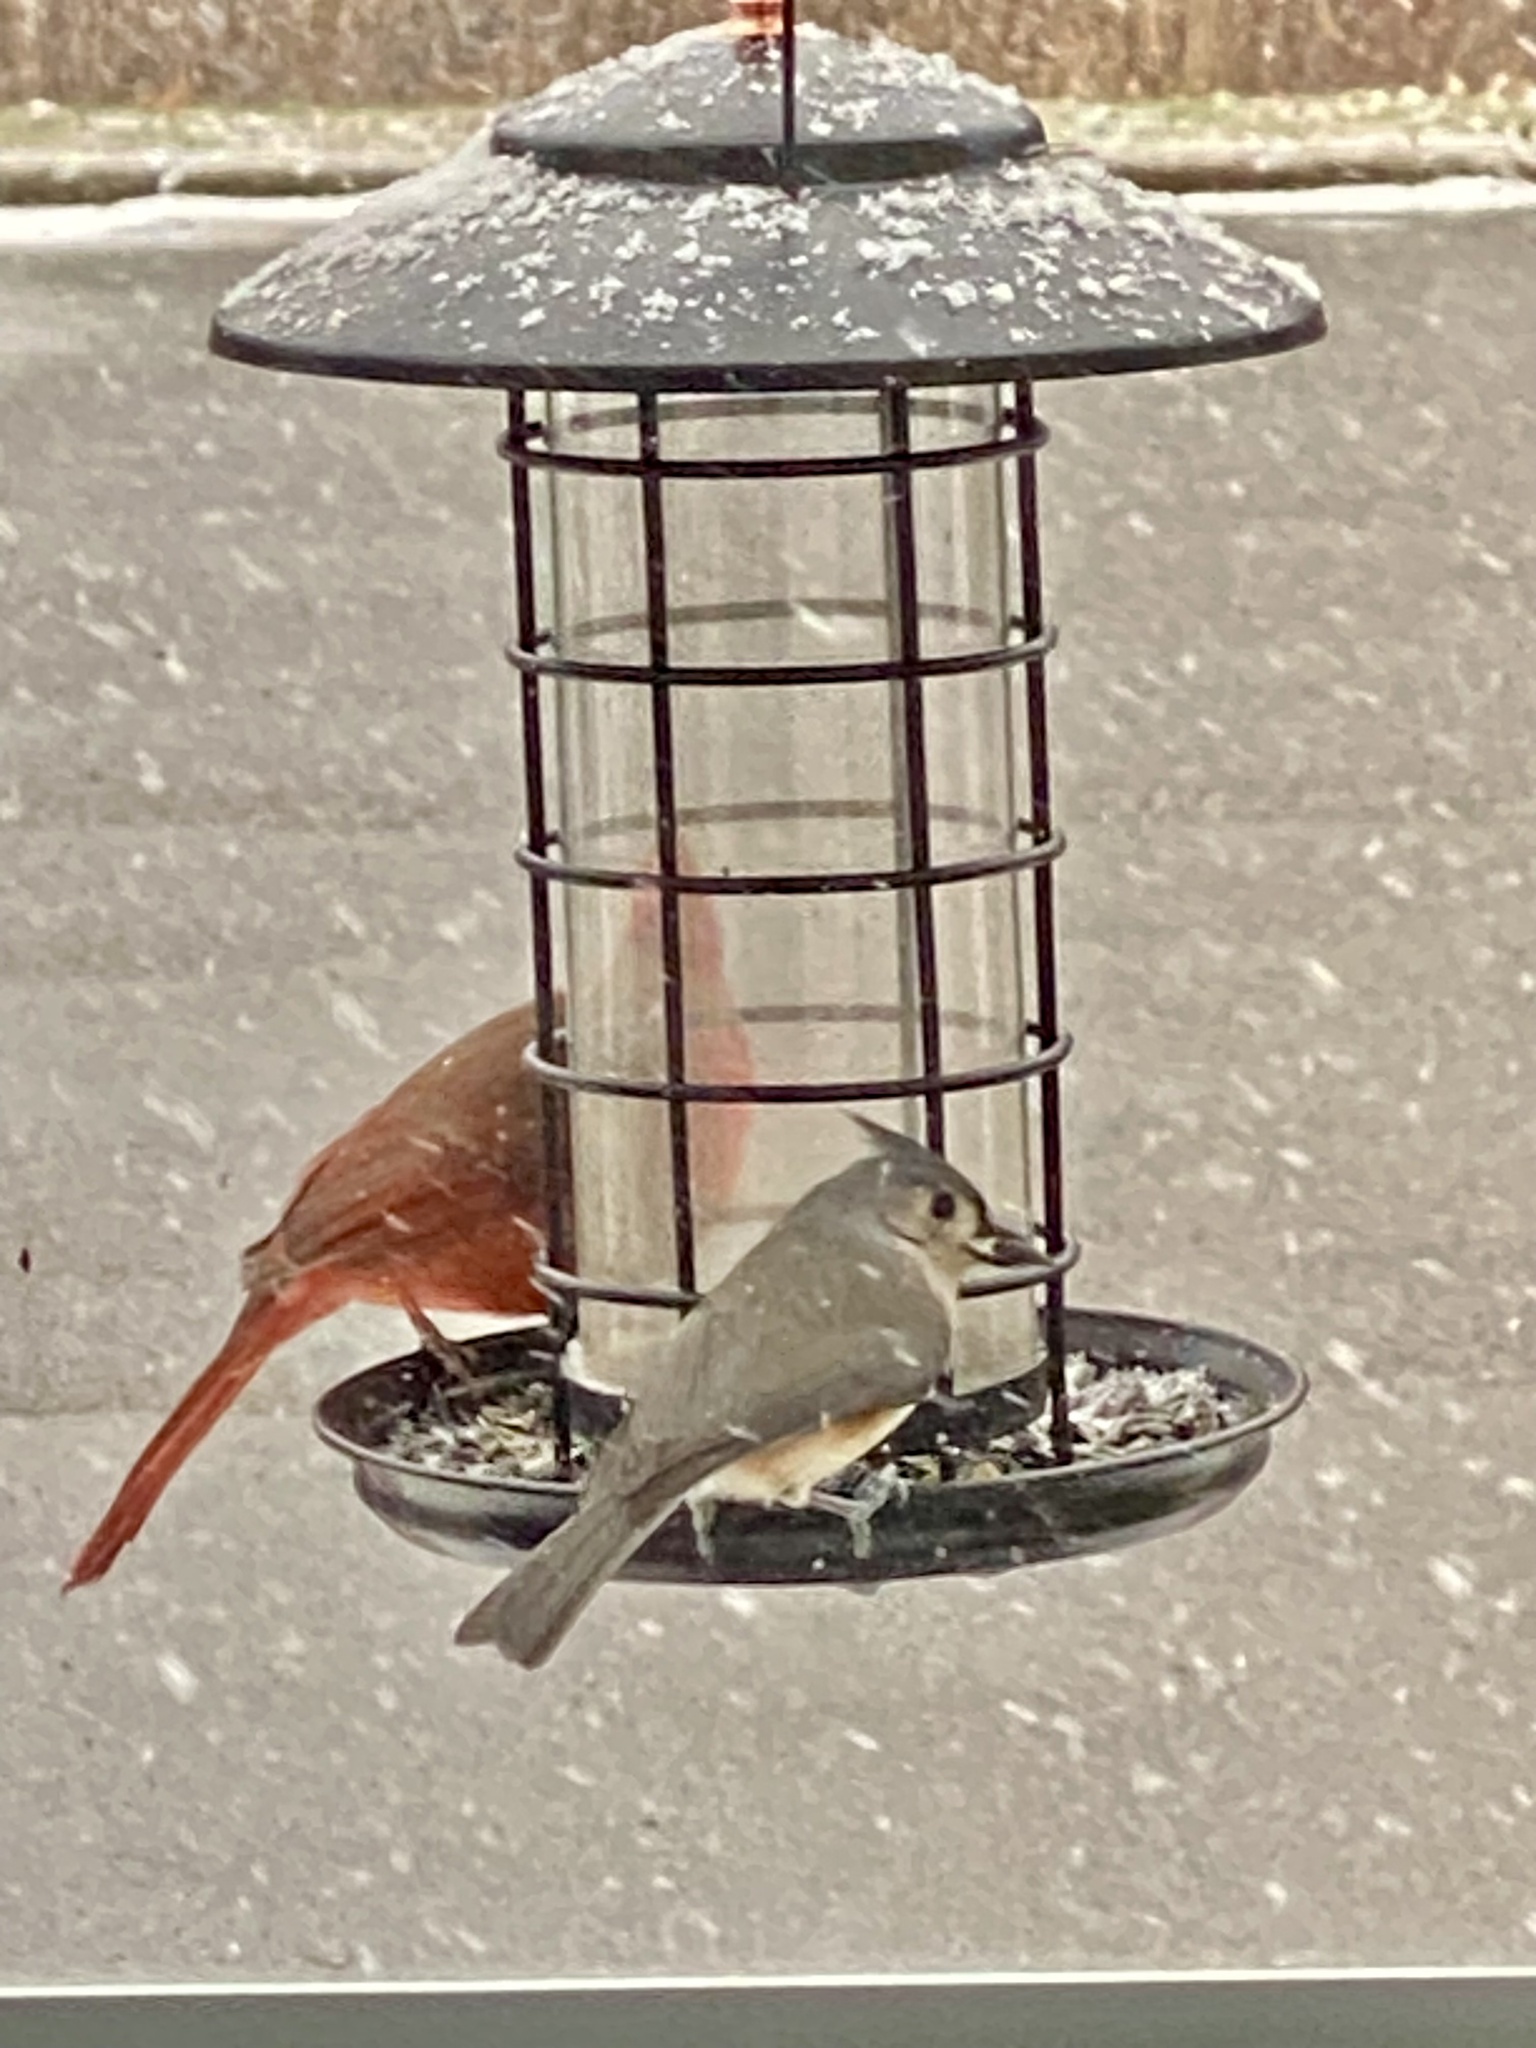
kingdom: Animalia
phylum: Chordata
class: Aves
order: Passeriformes
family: Paridae
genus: Baeolophus
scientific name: Baeolophus bicolor
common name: Tufted titmouse
